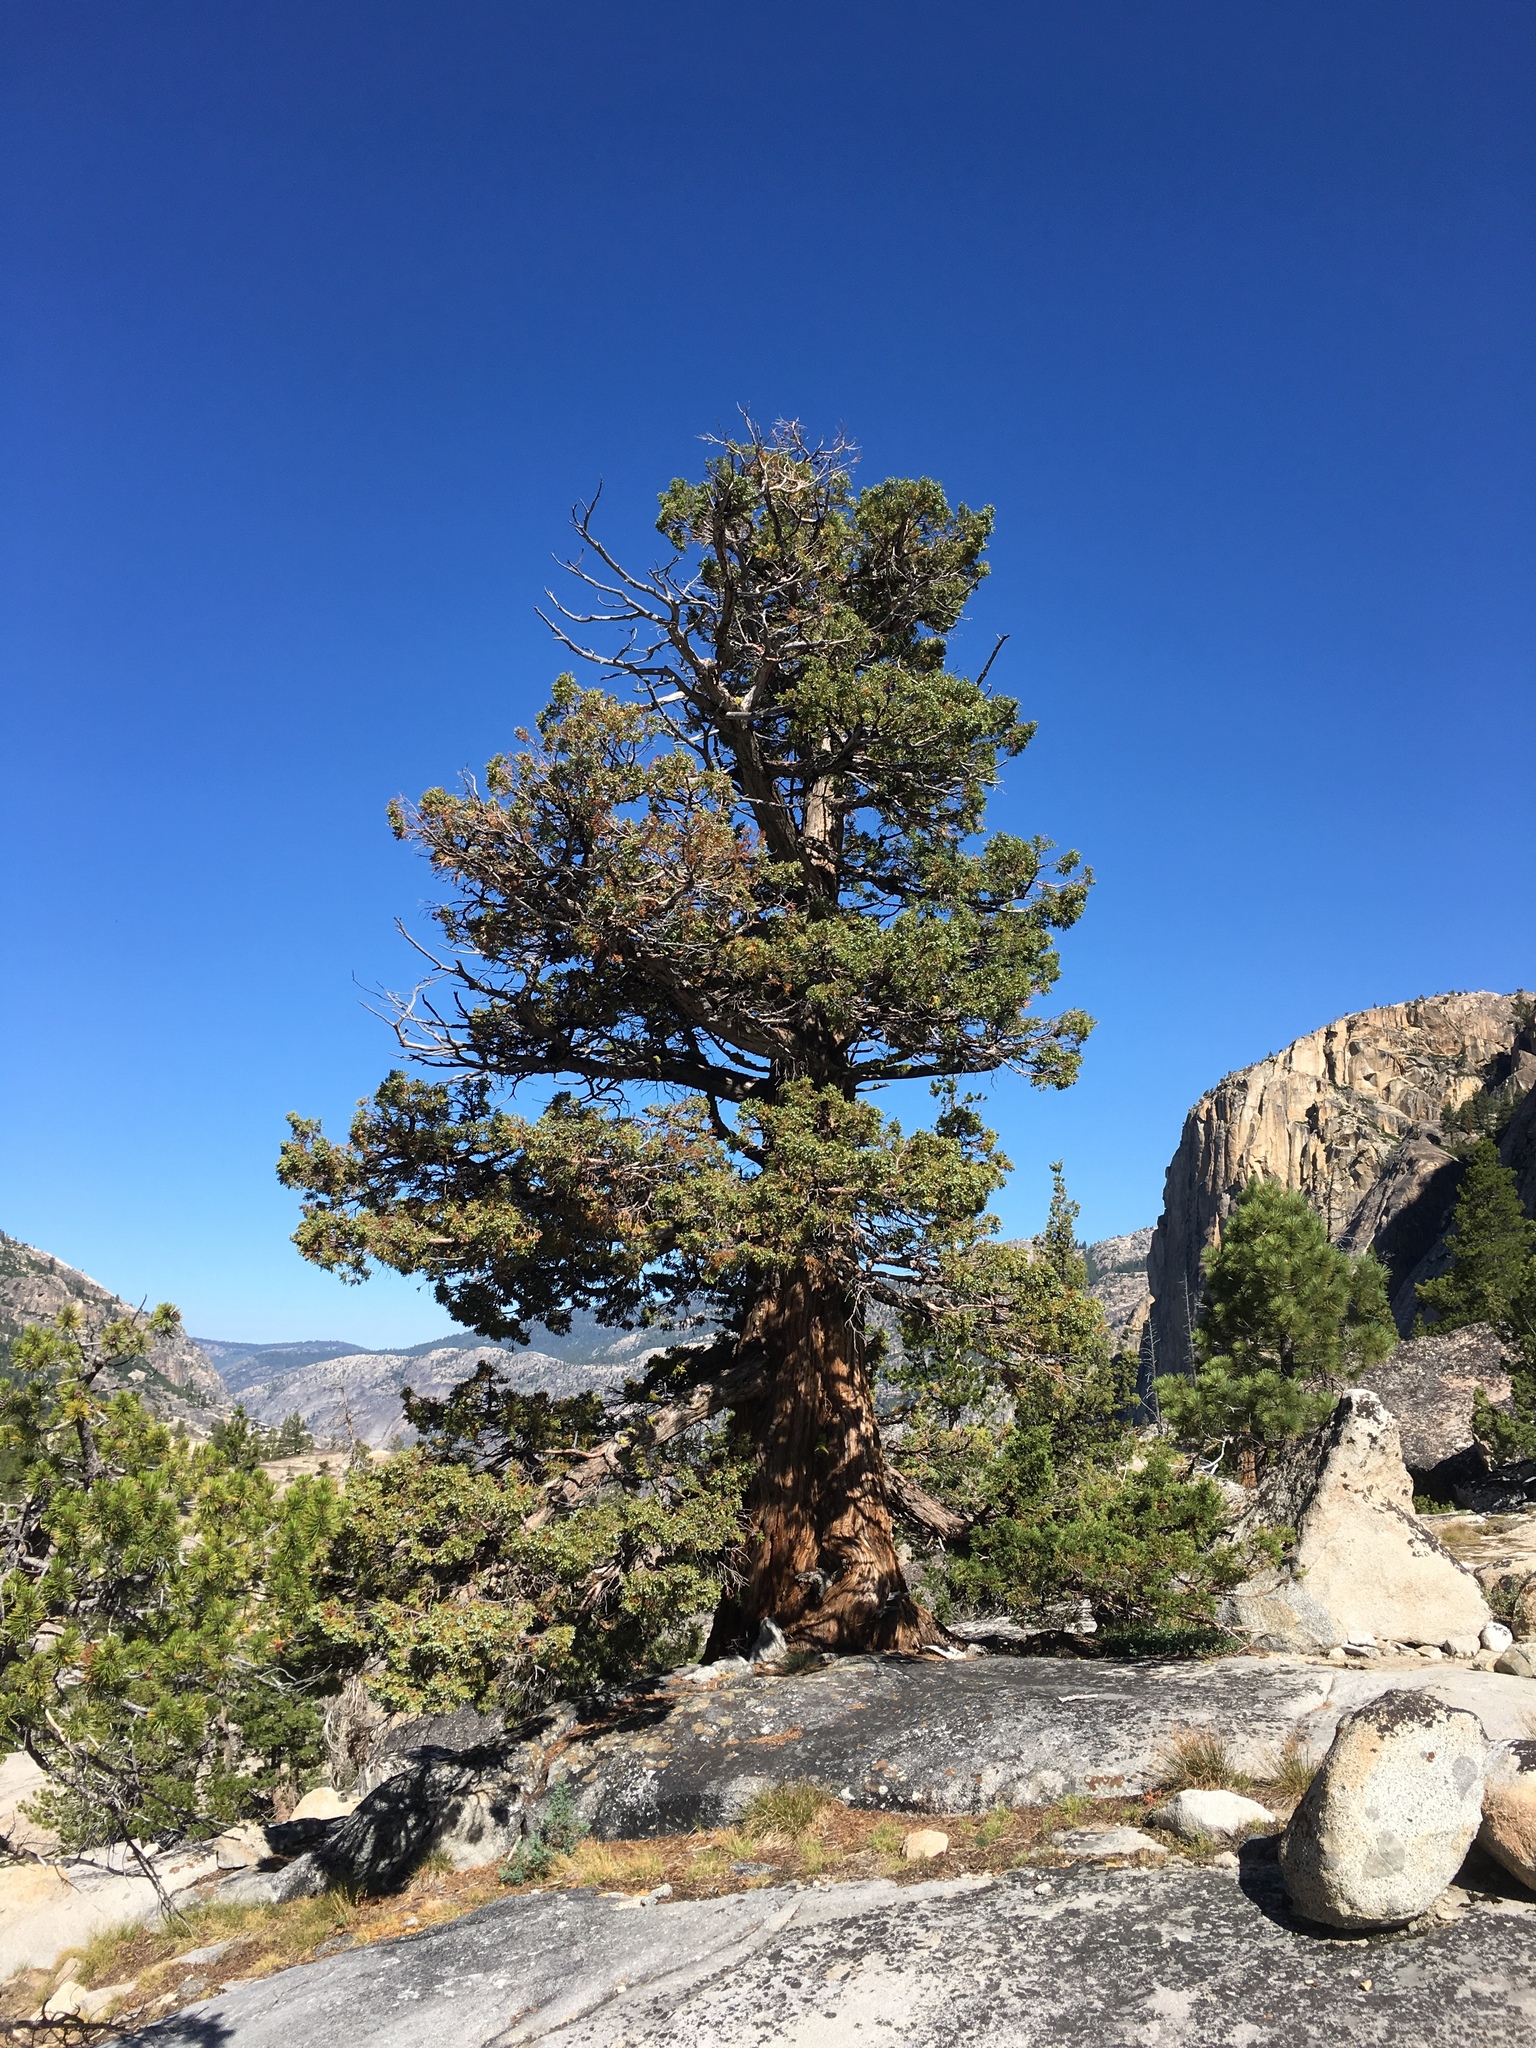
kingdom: Plantae
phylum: Tracheophyta
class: Pinopsida
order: Pinales
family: Cupressaceae
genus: Juniperus
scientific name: Juniperus occidentalis
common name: Western juniper
